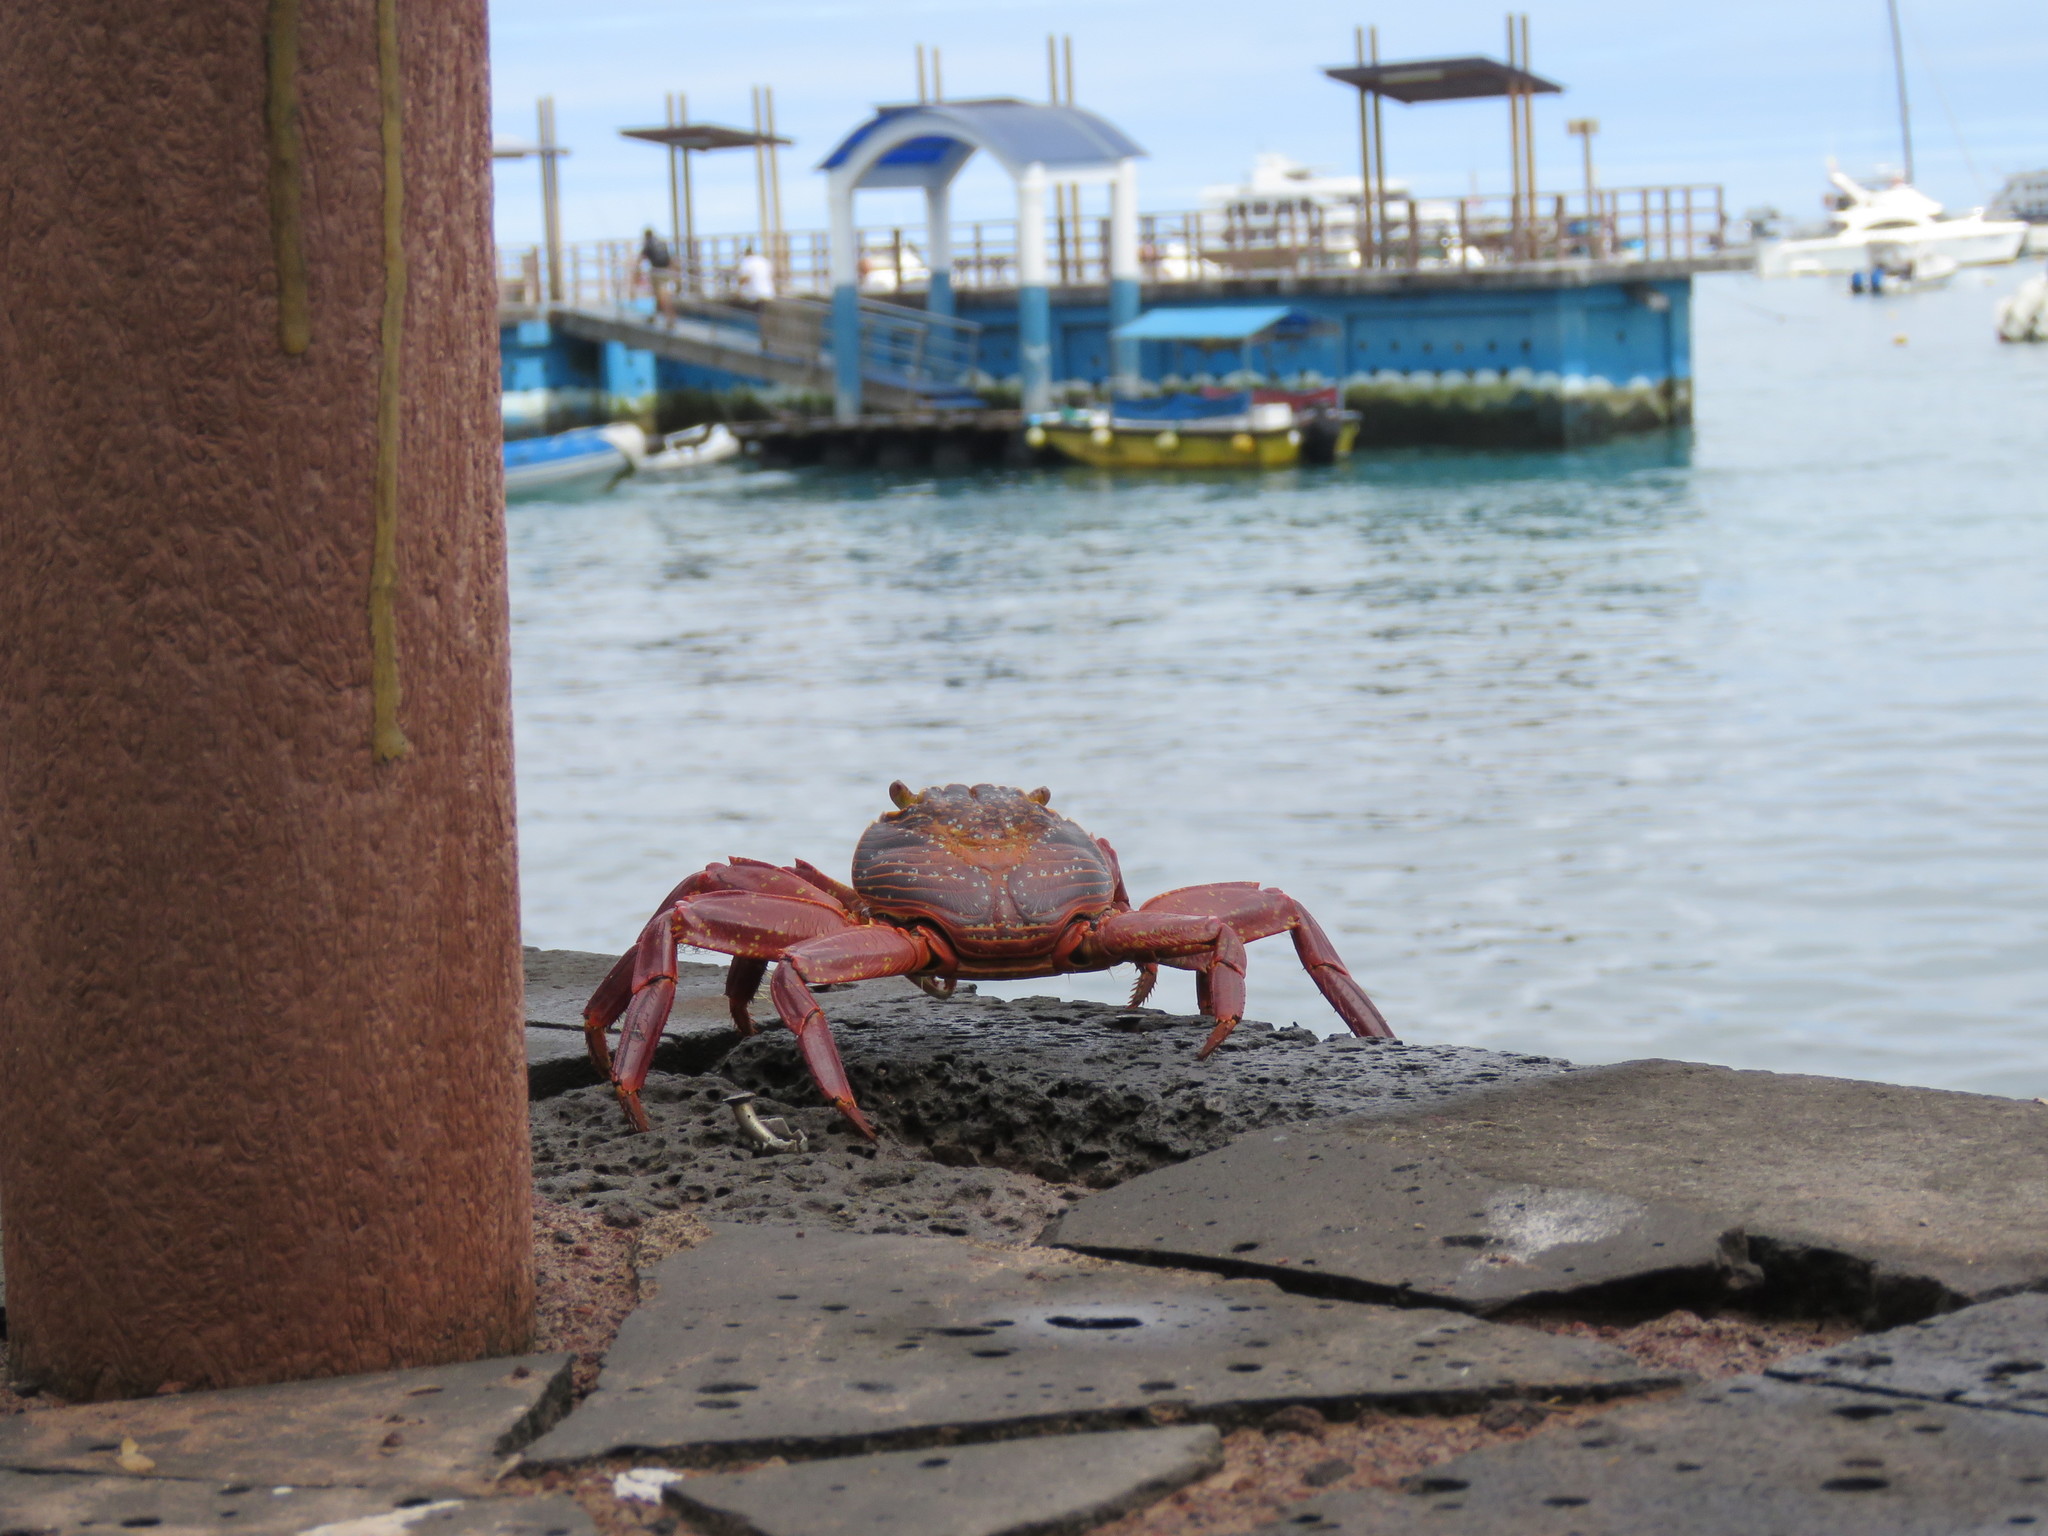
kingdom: Animalia
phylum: Arthropoda
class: Malacostraca
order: Decapoda
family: Grapsidae
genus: Grapsus
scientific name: Grapsus grapsus
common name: Sally lightfoot
